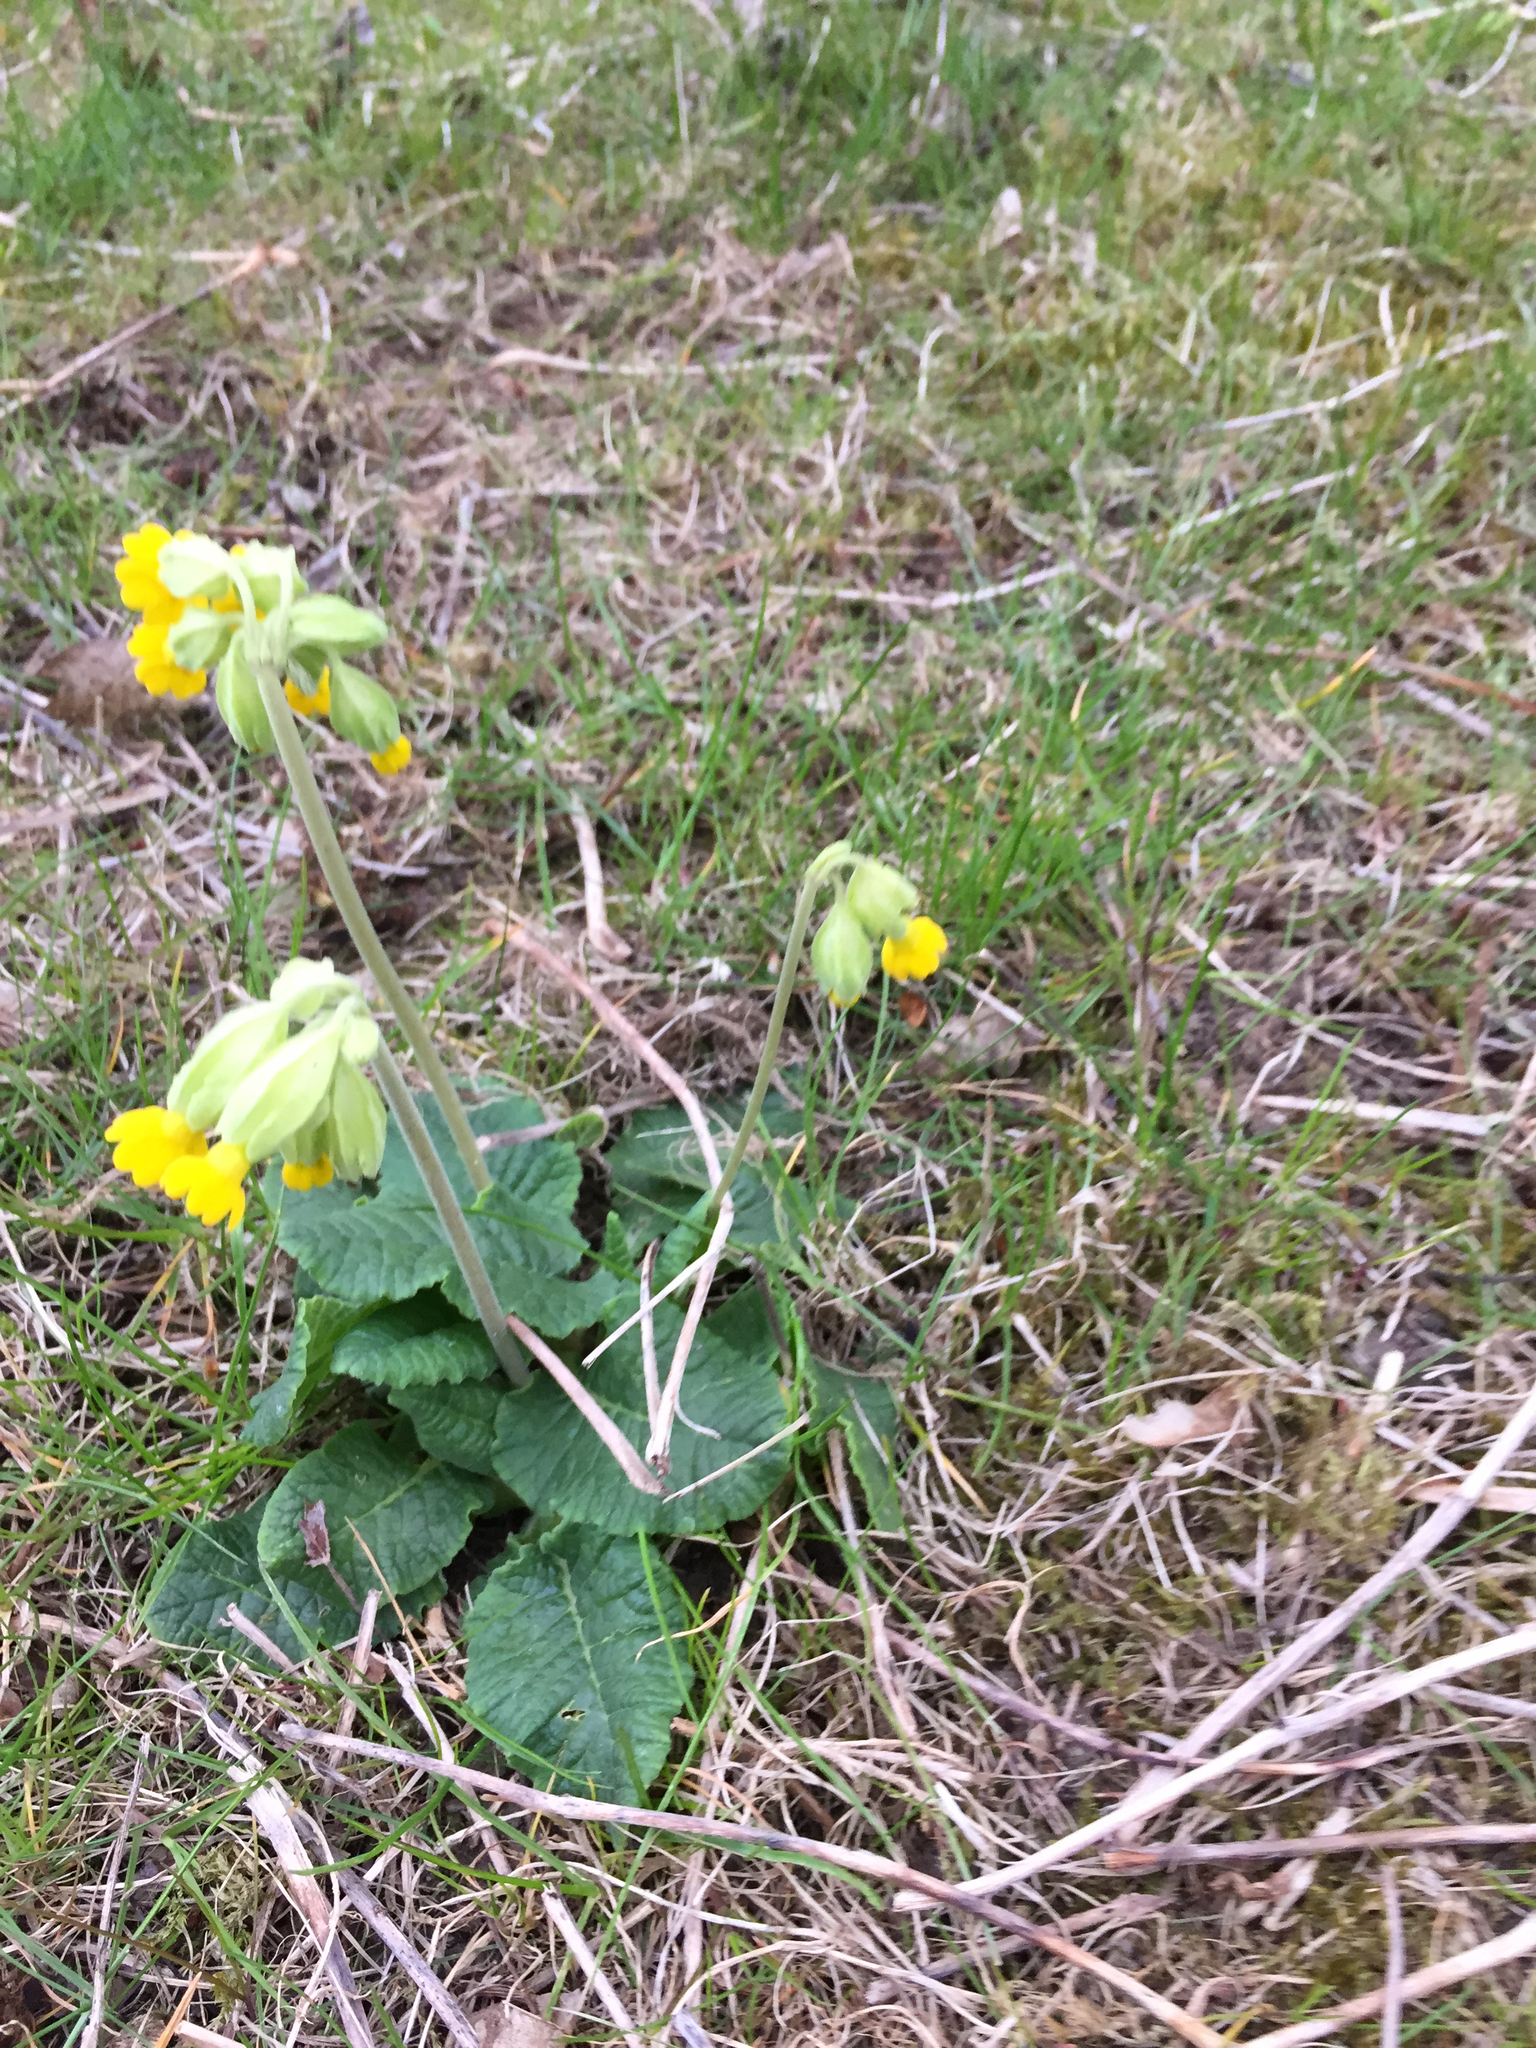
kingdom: Plantae
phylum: Tracheophyta
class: Magnoliopsida
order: Ericales
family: Primulaceae
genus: Primula
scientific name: Primula veris
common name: Cowslip
